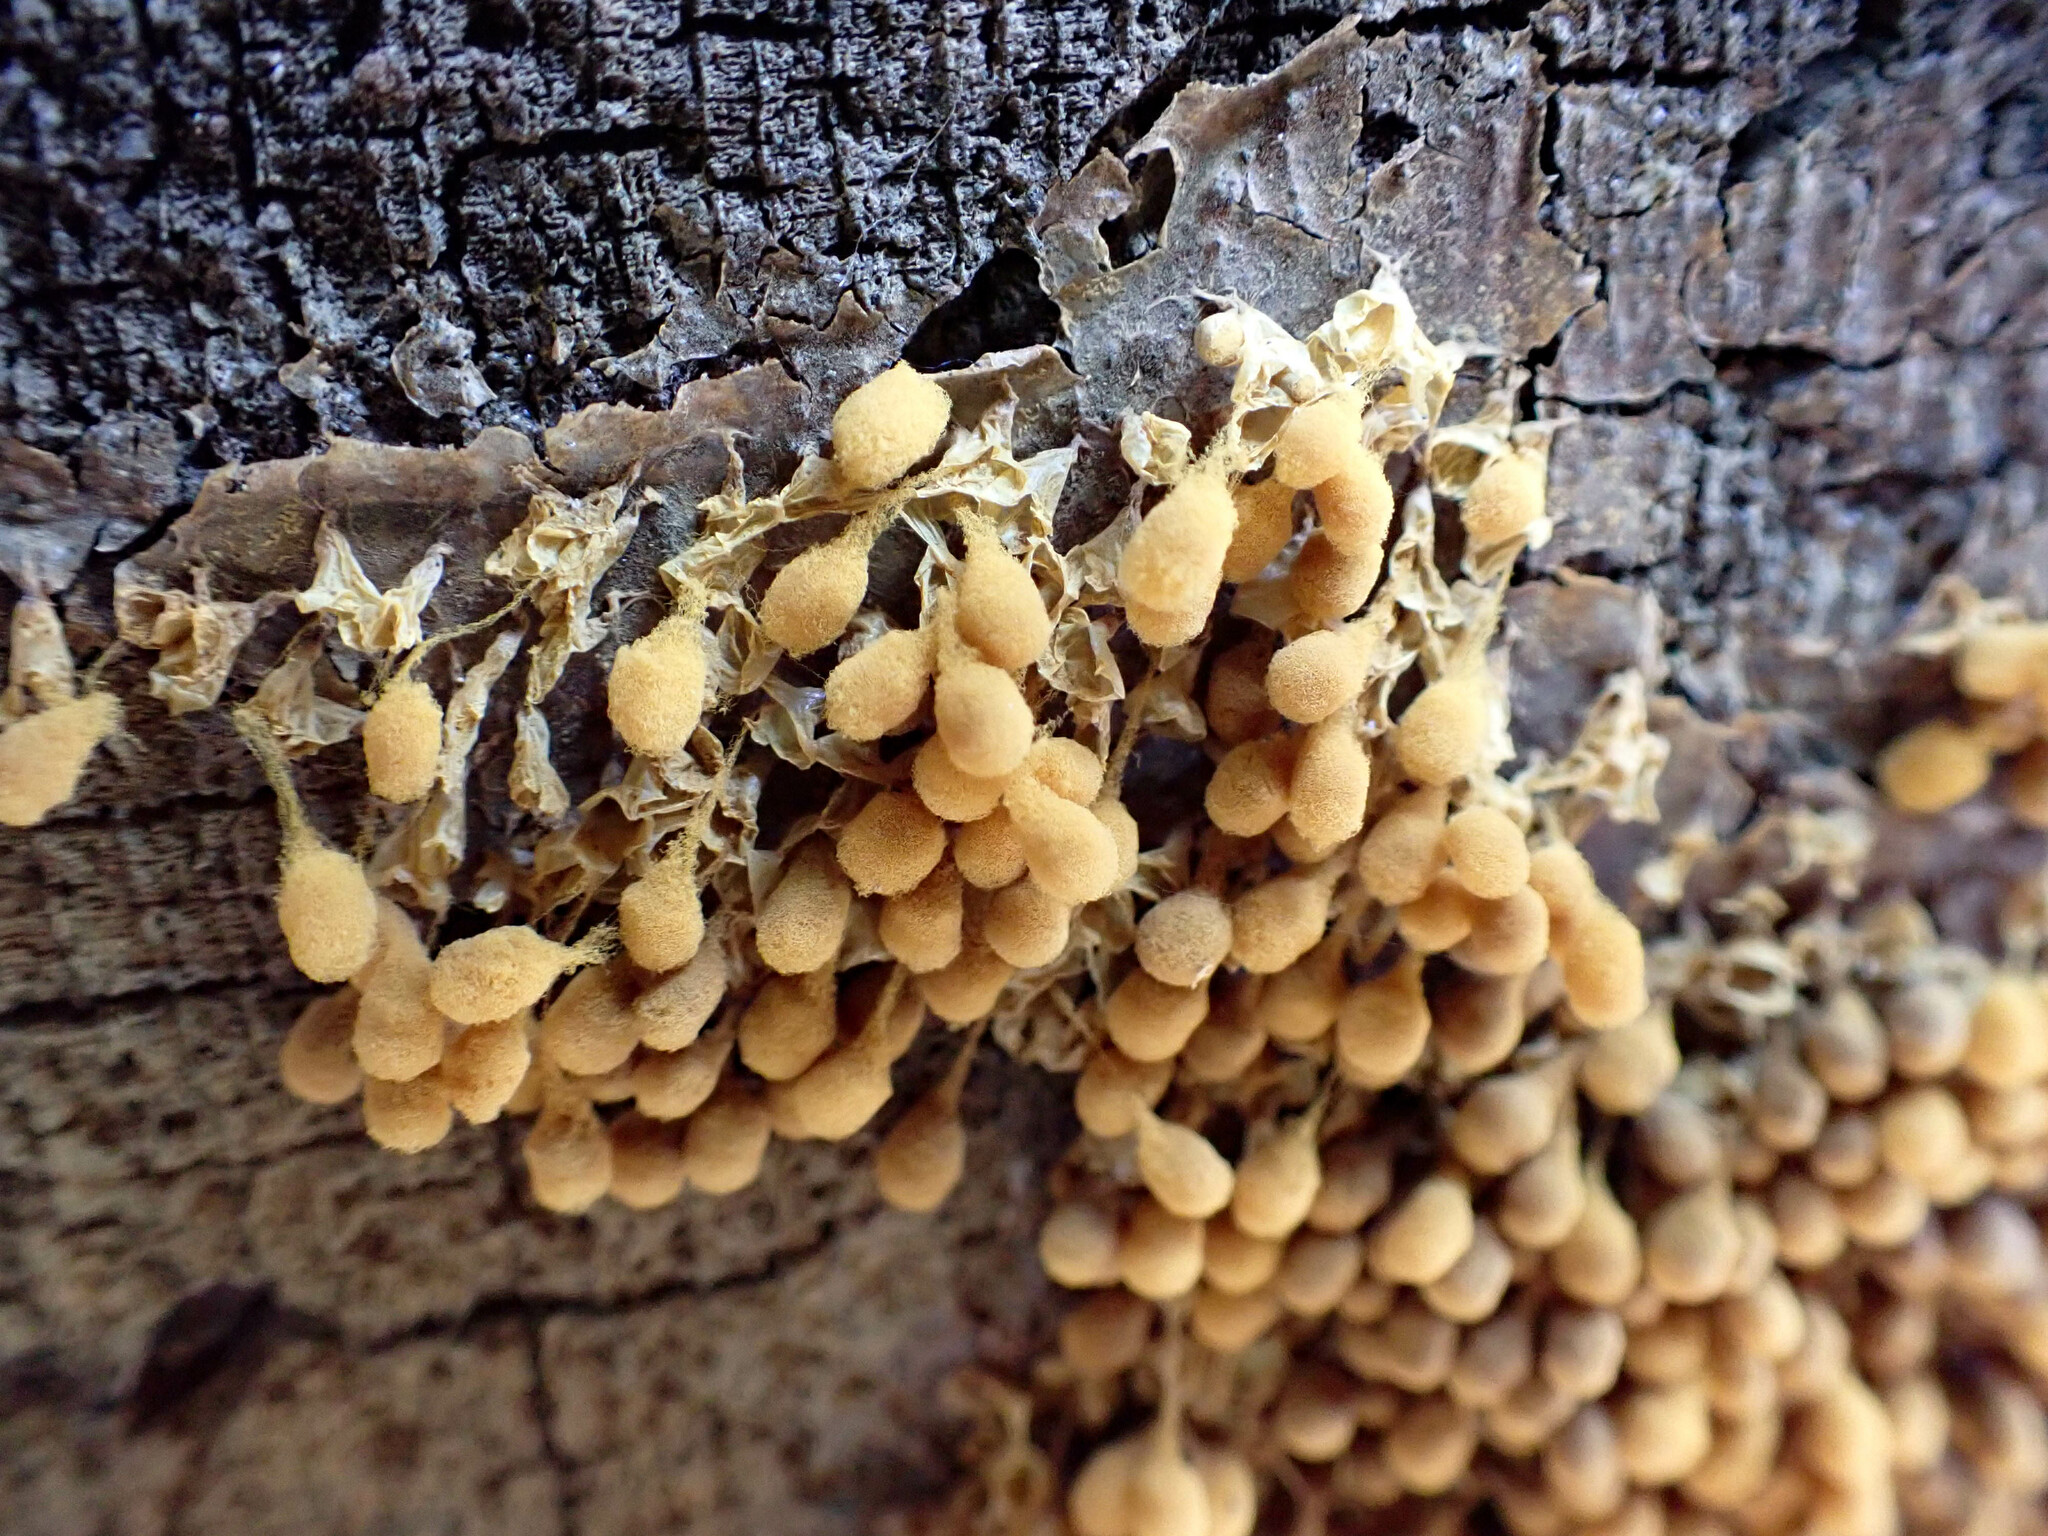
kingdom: Protozoa
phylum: Mycetozoa
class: Myxomycetes
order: Trichiales
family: Arcyriaceae
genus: Arcyria
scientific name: Arcyria versicolor
